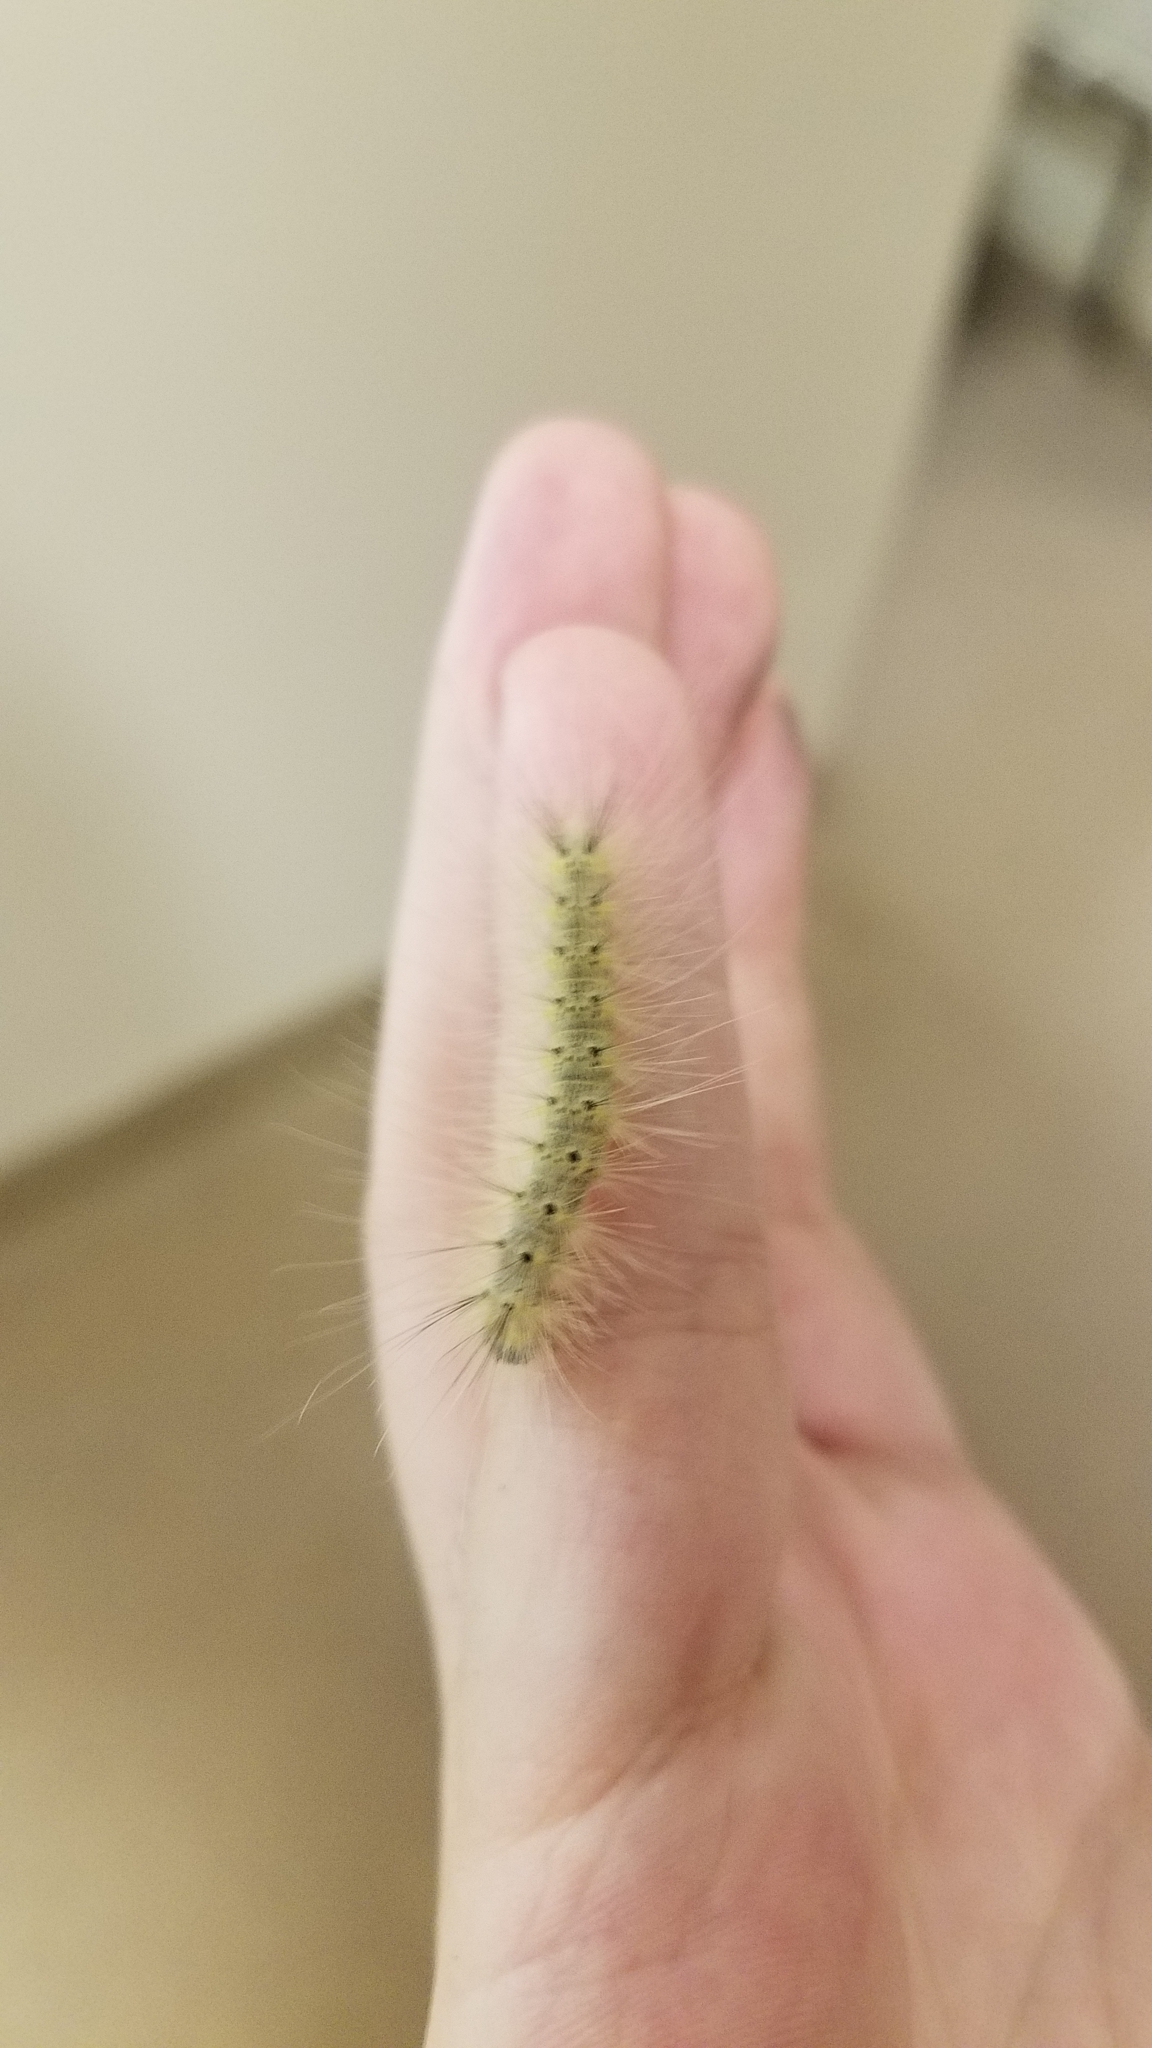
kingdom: Animalia
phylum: Arthropoda
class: Insecta
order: Lepidoptera
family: Erebidae
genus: Hyphantria
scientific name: Hyphantria cunea
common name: American white moth
